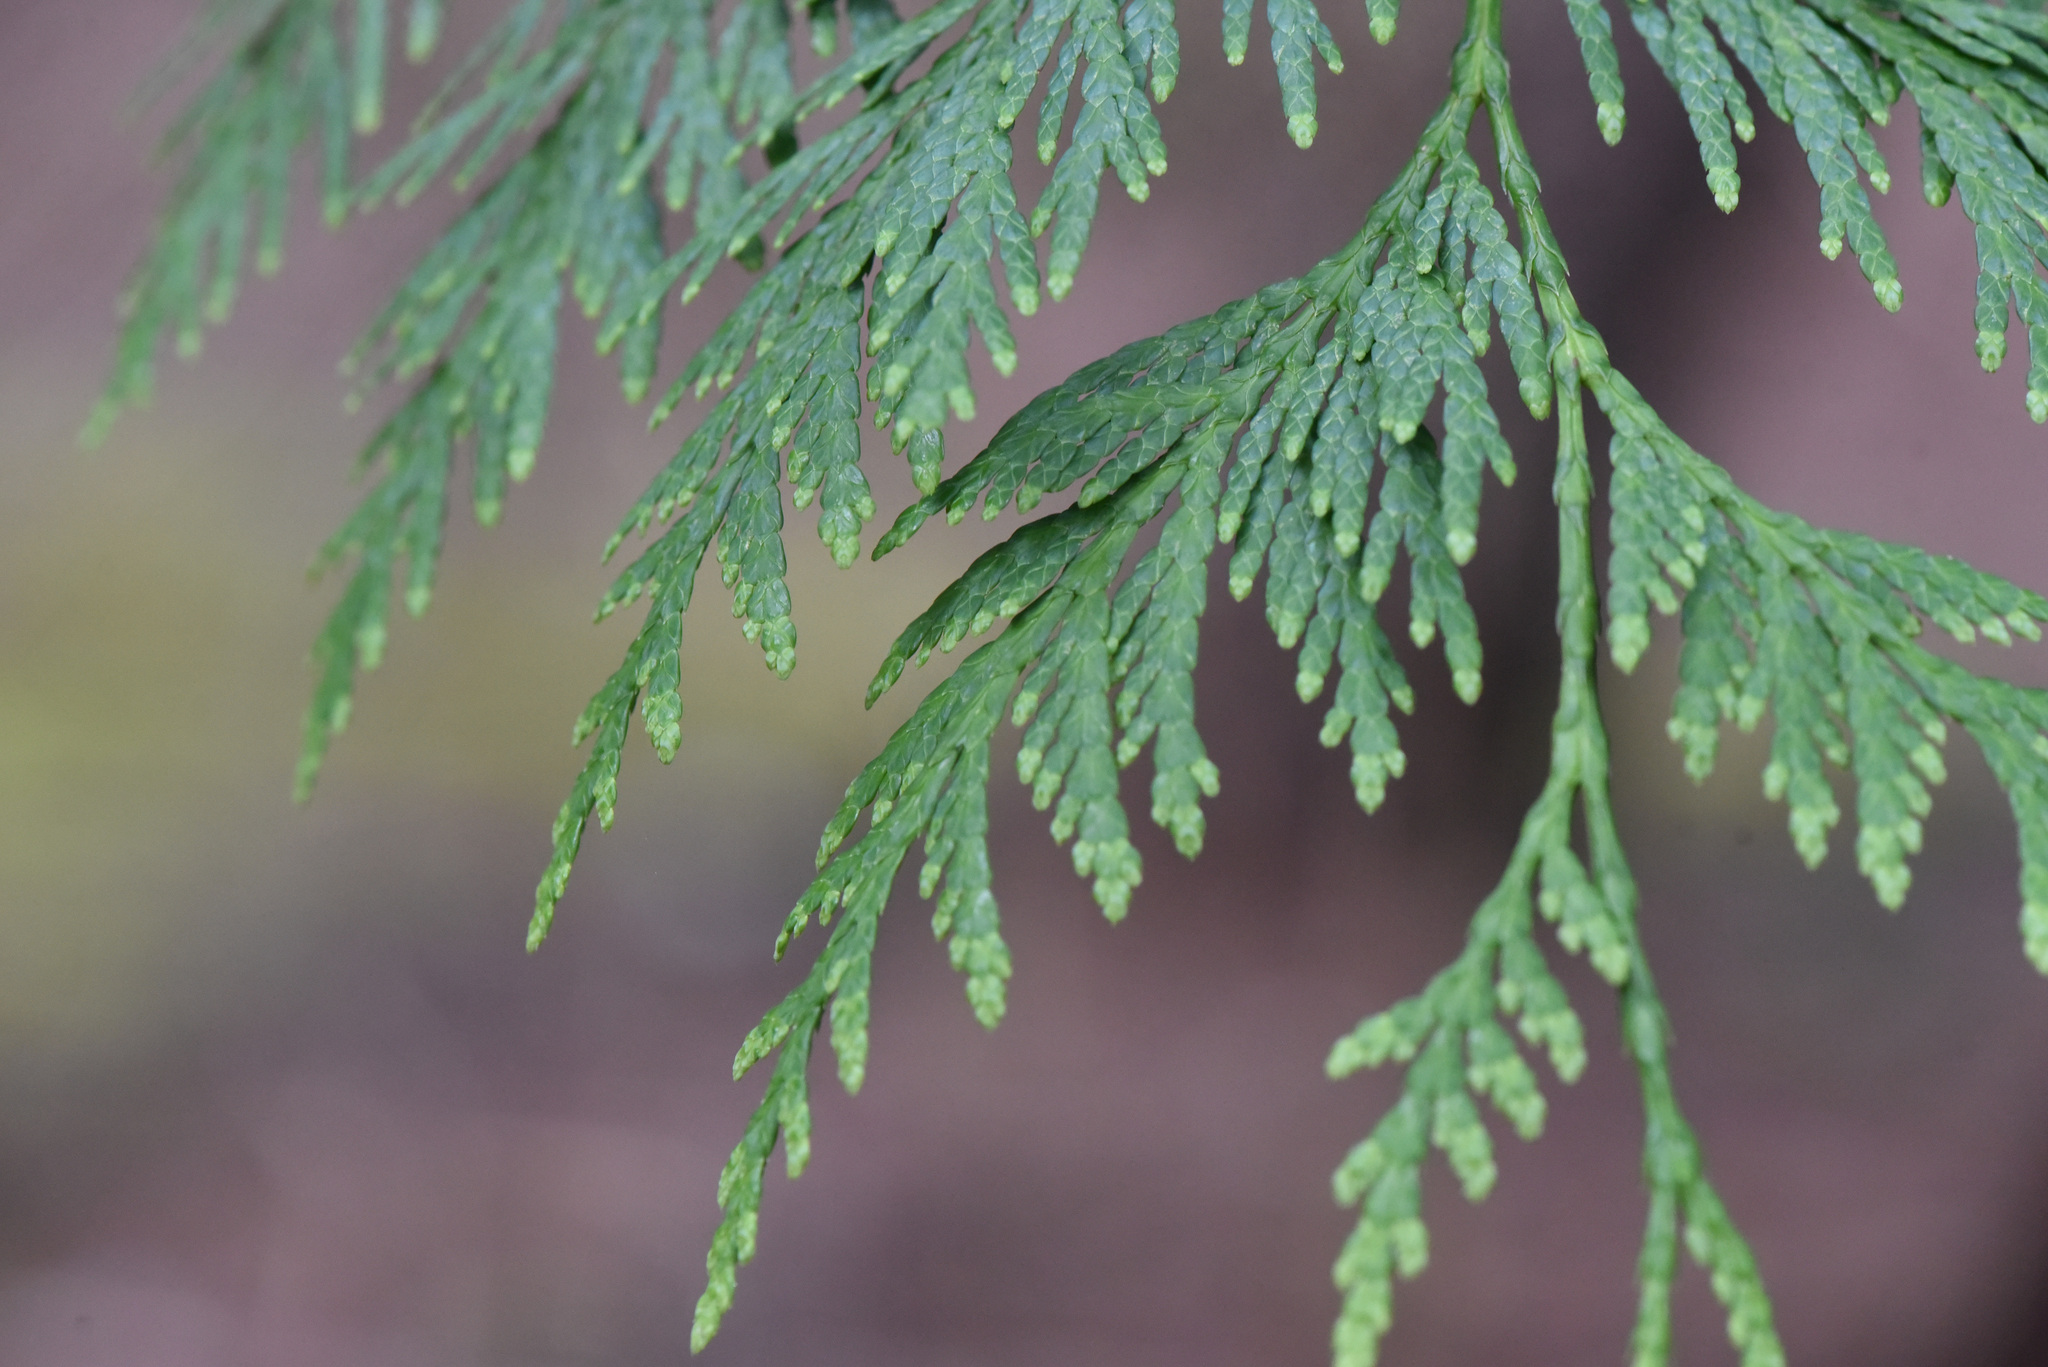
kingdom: Plantae
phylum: Tracheophyta
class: Pinopsida
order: Pinales
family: Cupressaceae
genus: Thuja
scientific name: Thuja plicata
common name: Western red-cedar
